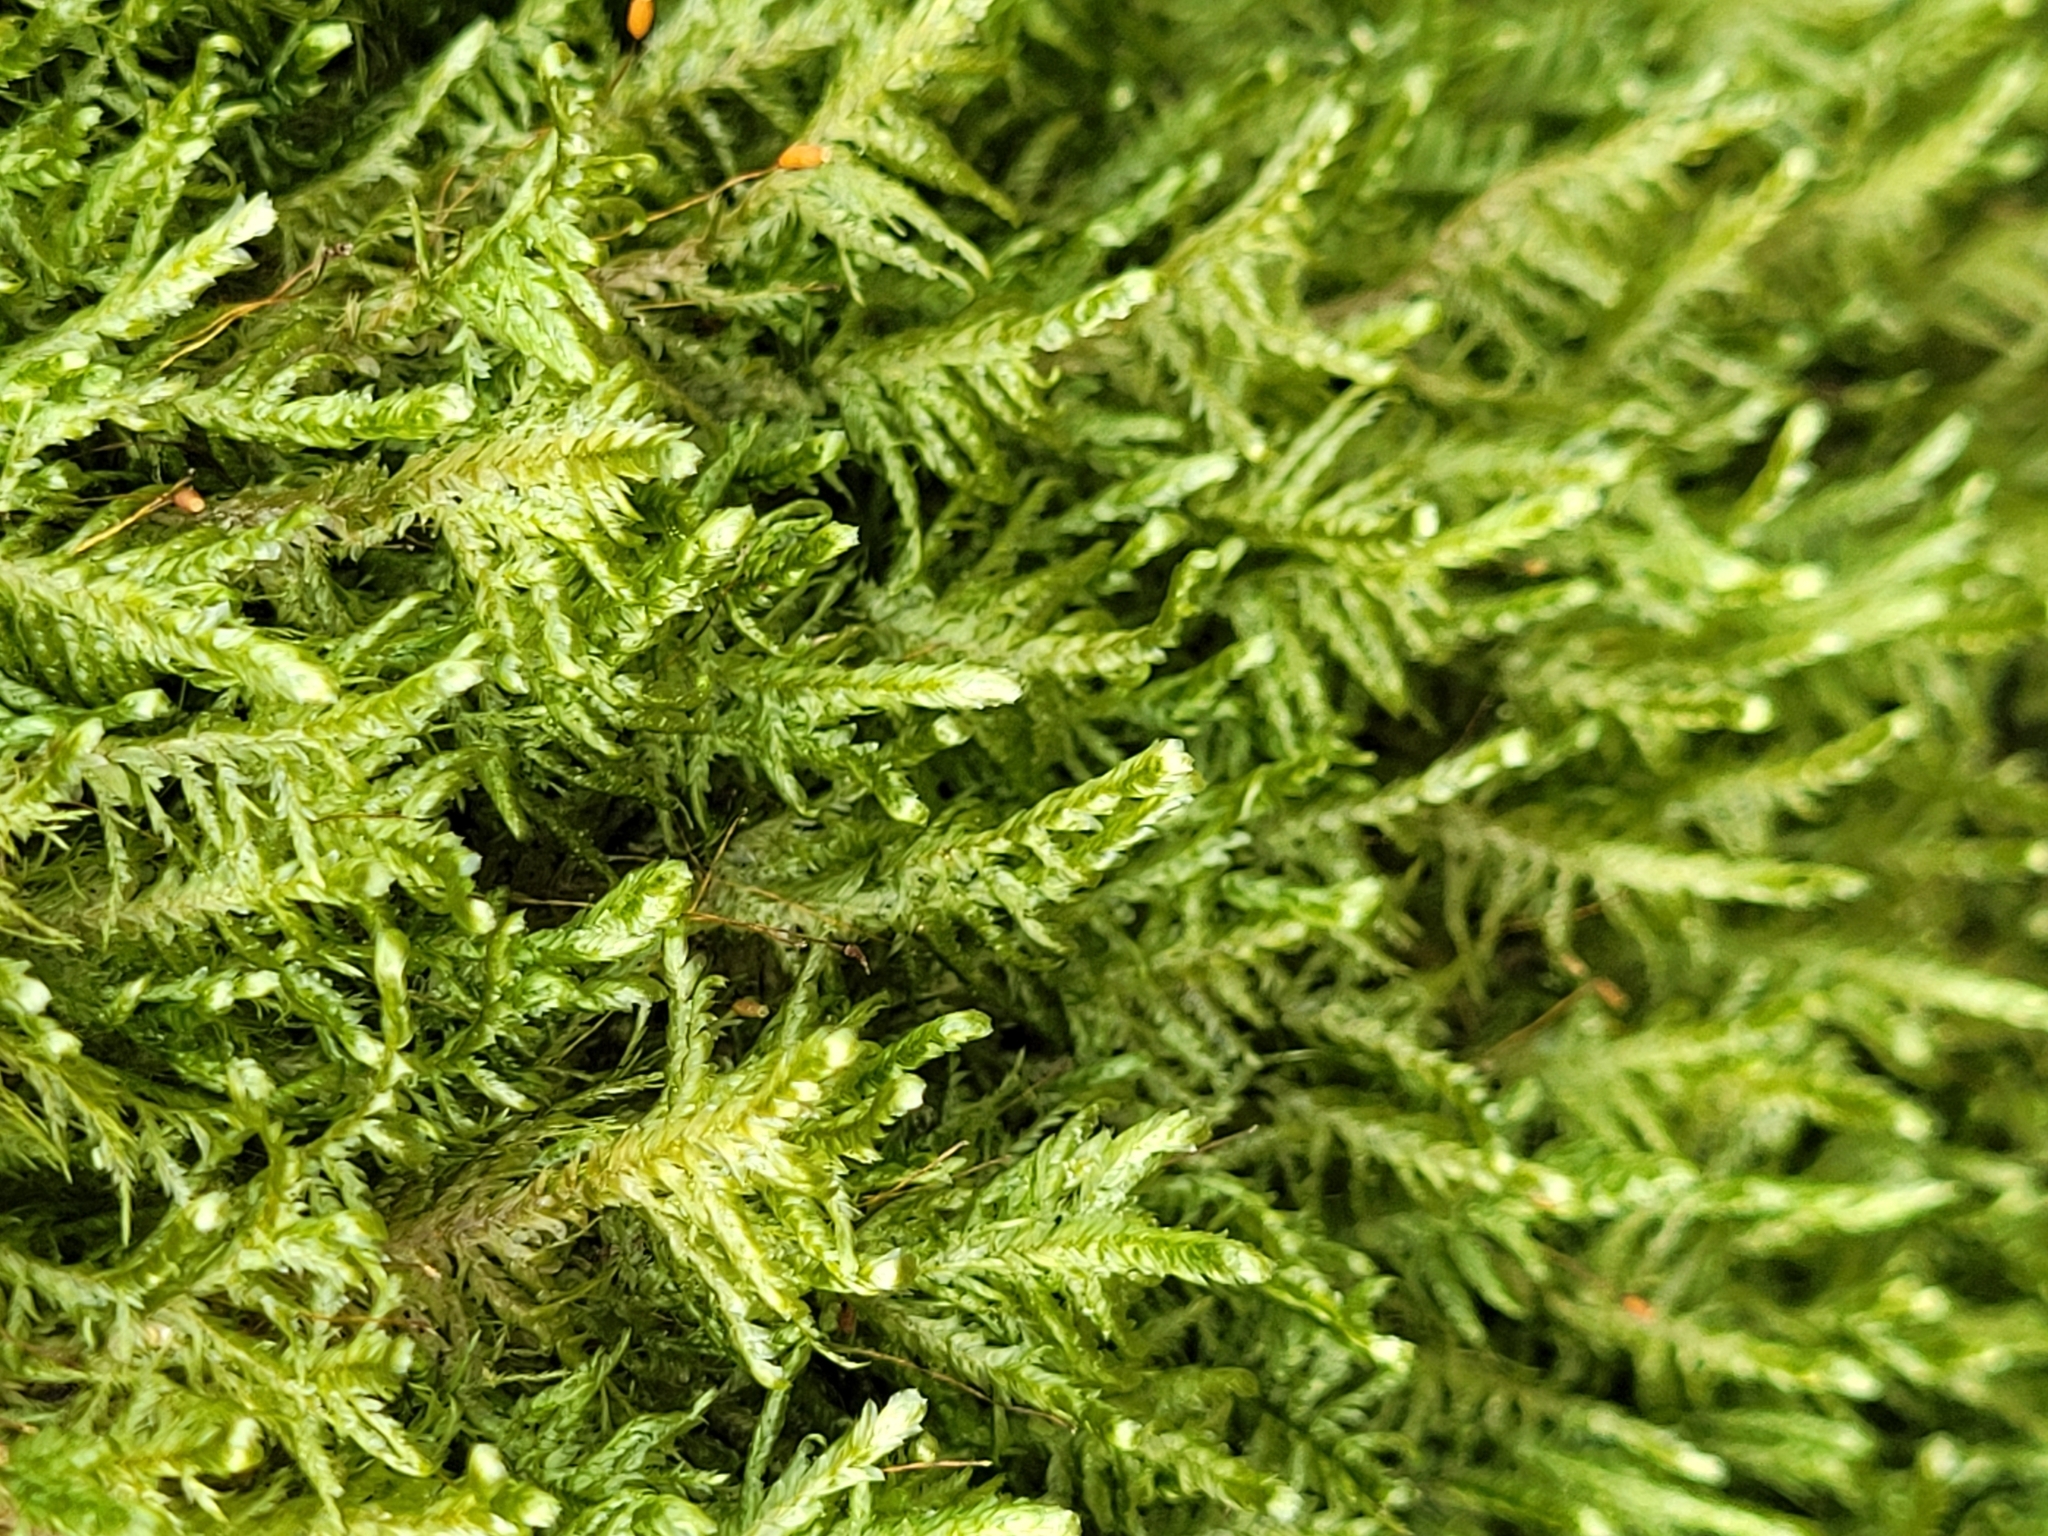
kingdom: Plantae
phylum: Bryophyta
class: Bryopsida
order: Hypnales
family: Neckeraceae
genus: Alleniella
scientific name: Alleniella complanata
